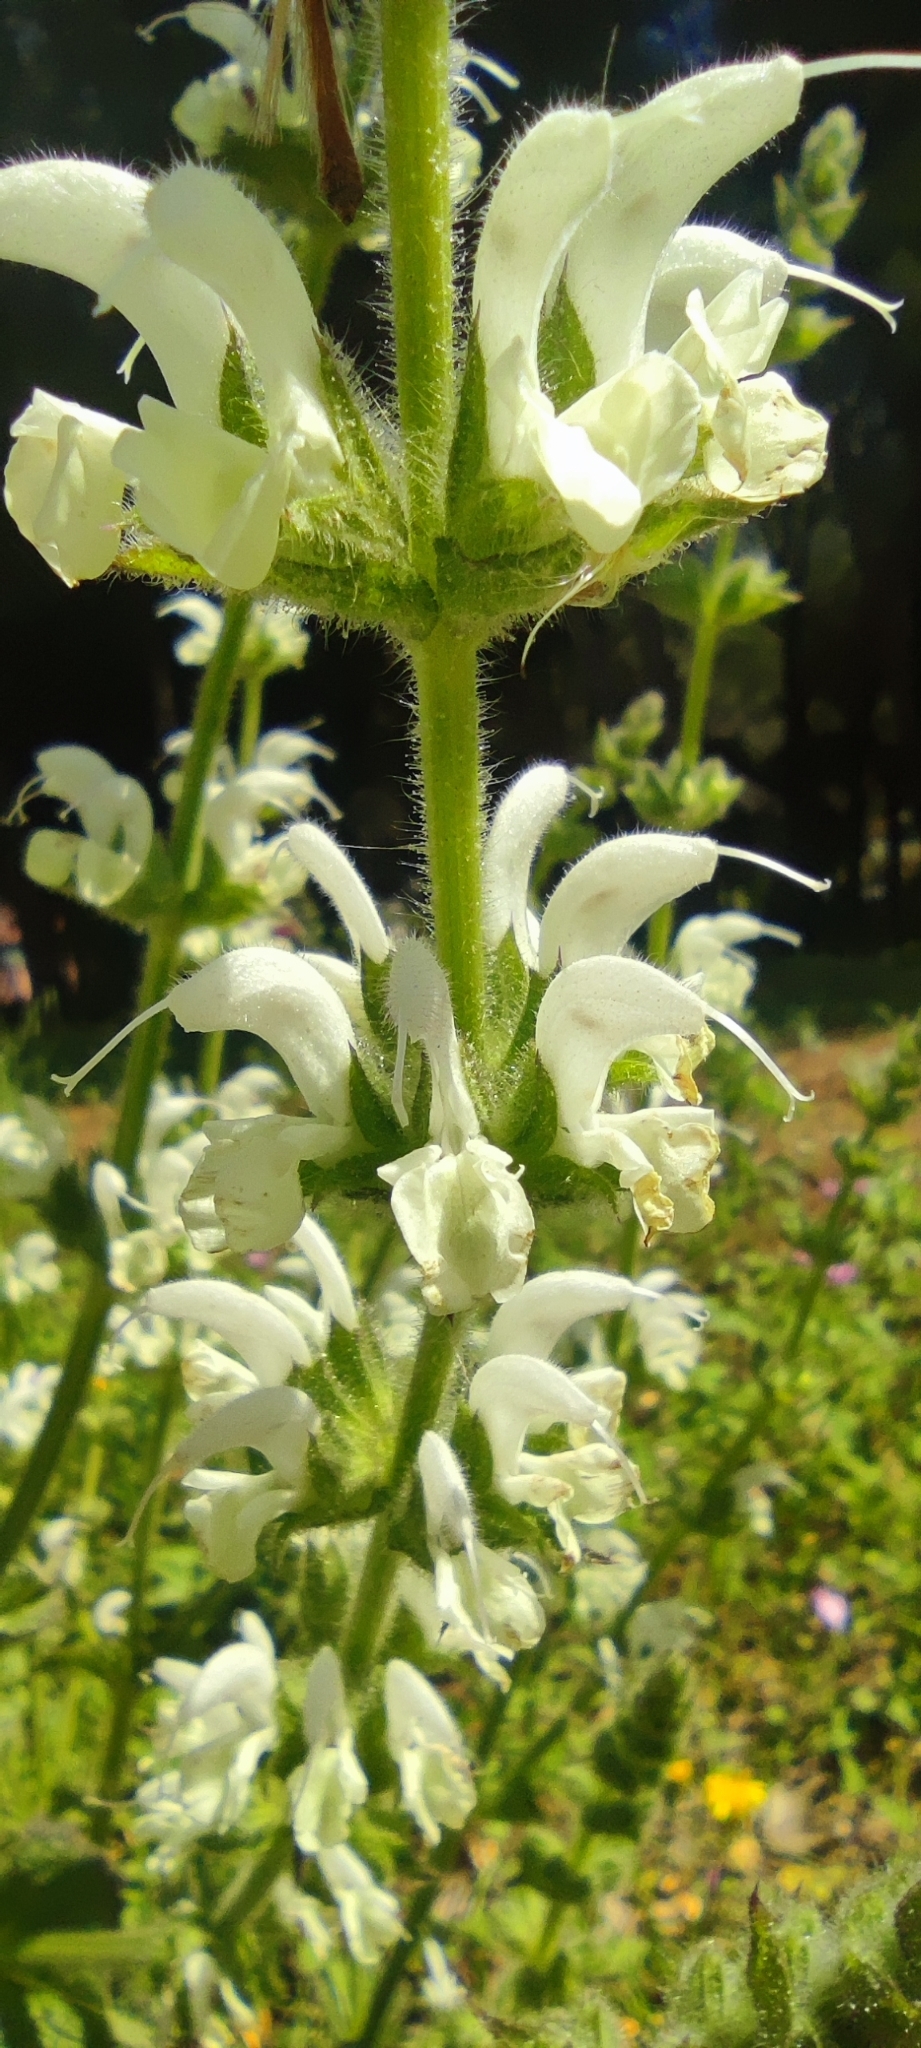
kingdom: Plantae
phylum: Tracheophyta
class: Magnoliopsida
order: Lamiales
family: Lamiaceae
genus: Salvia
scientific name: Salvia argentea
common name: Silver sage
